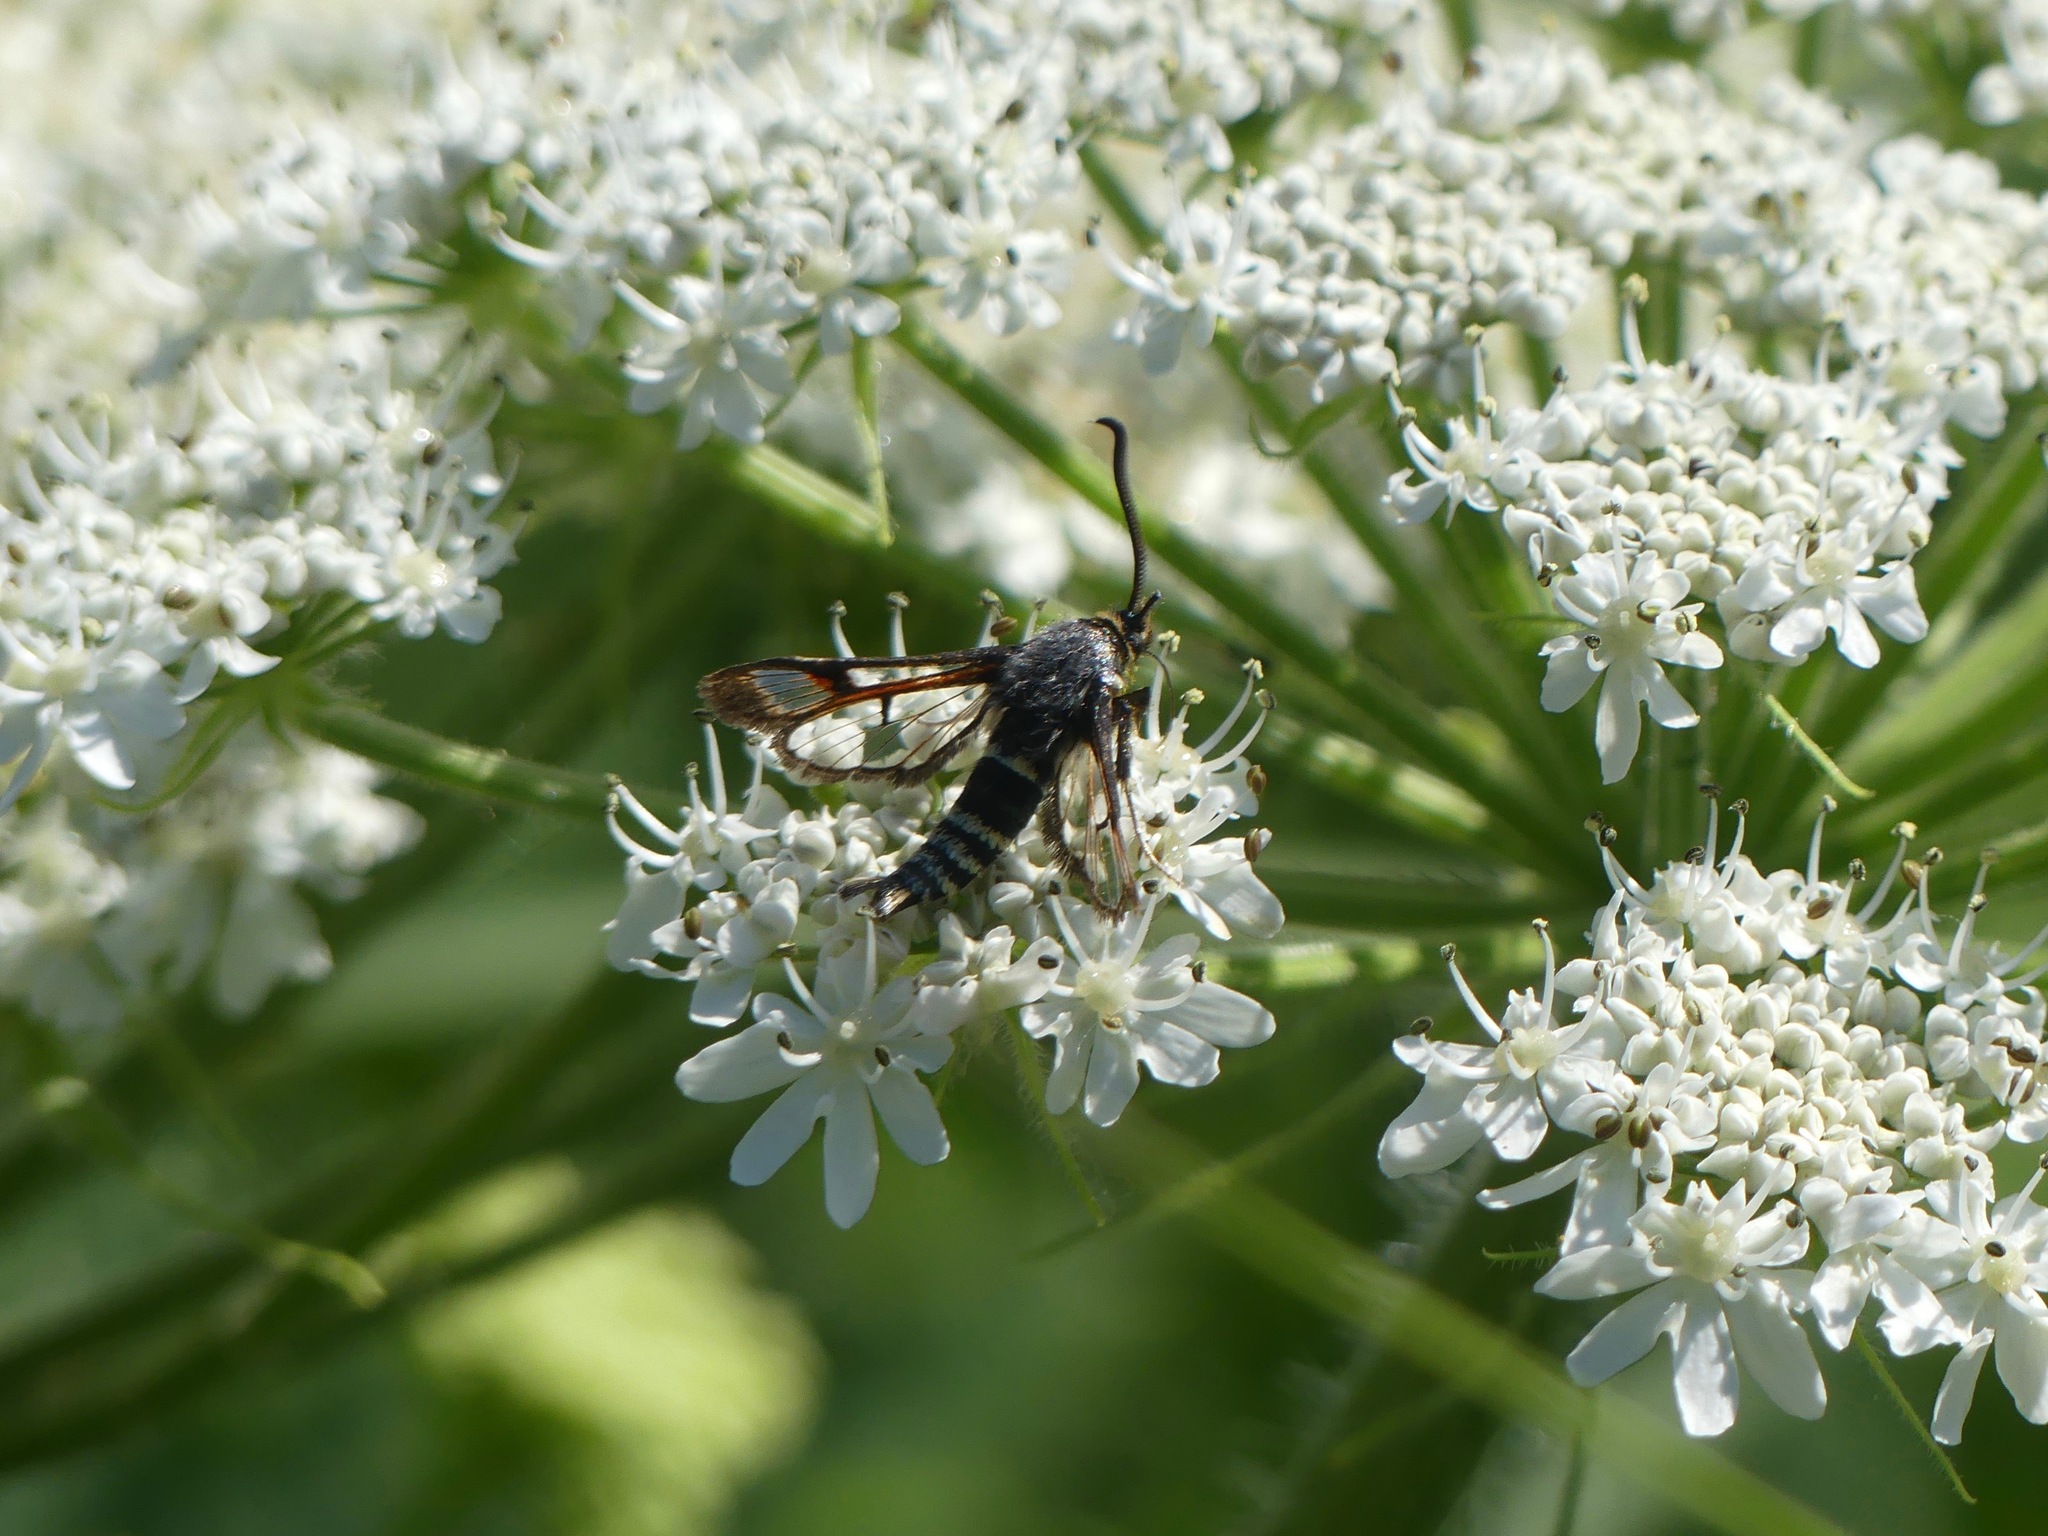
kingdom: Animalia
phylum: Arthropoda
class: Insecta
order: Lepidoptera
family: Sesiidae
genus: Albuna
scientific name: Albuna pyramidalis
